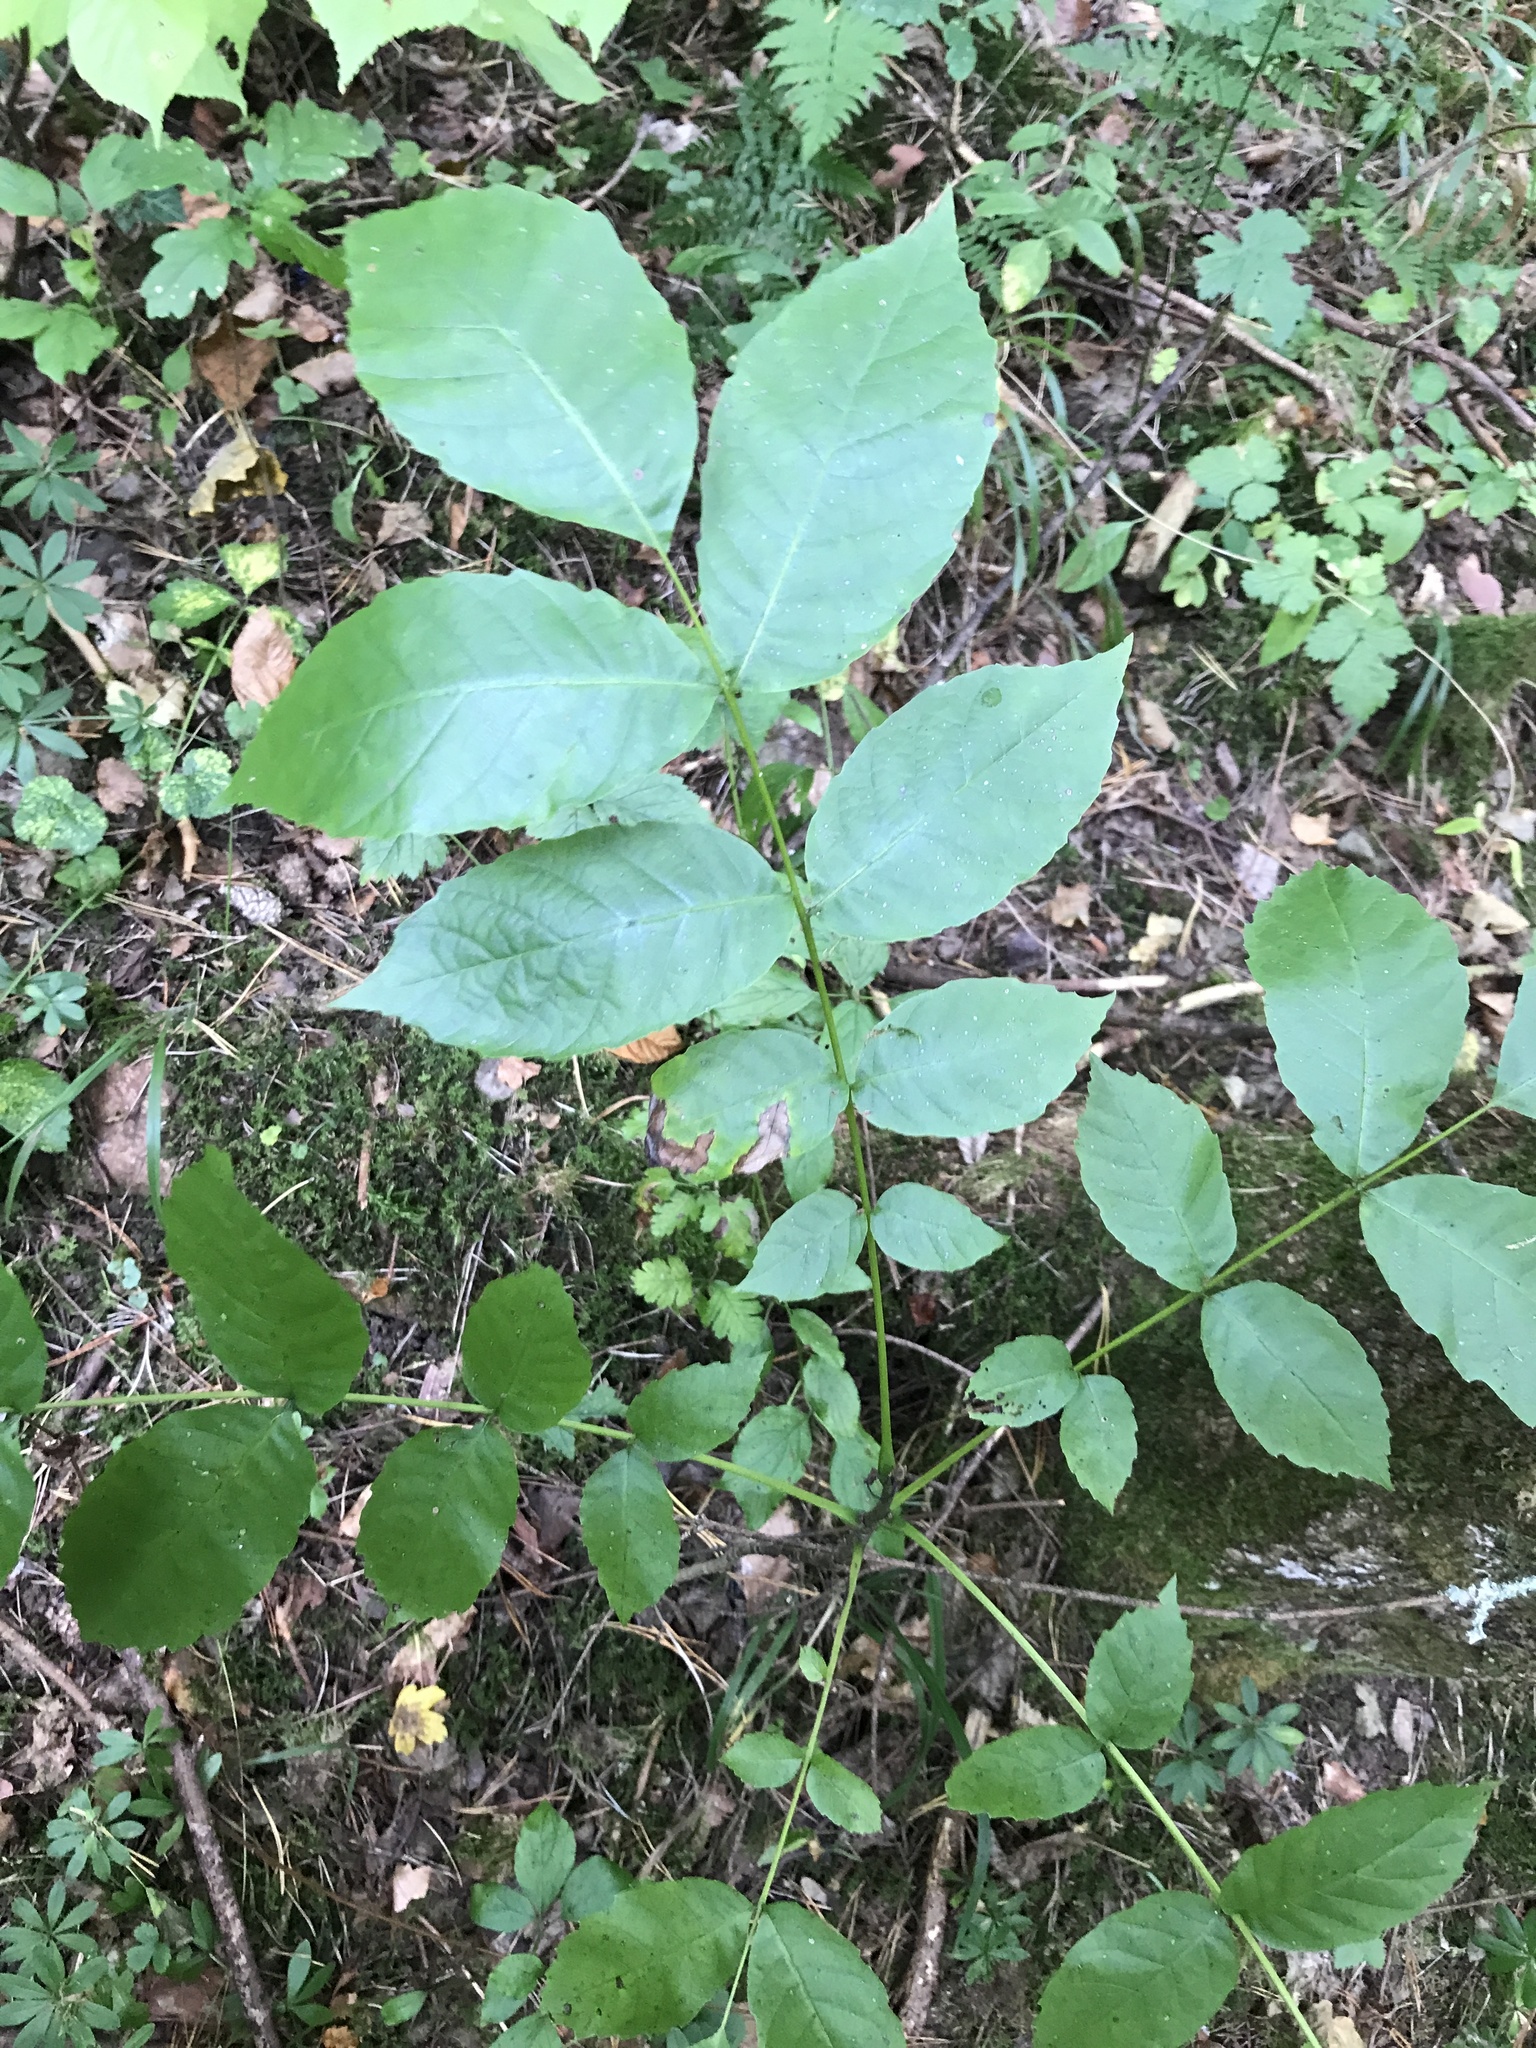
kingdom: Plantae
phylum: Tracheophyta
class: Magnoliopsida
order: Lamiales
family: Oleaceae
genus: Fraxinus
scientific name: Fraxinus excelsior
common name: European ash
